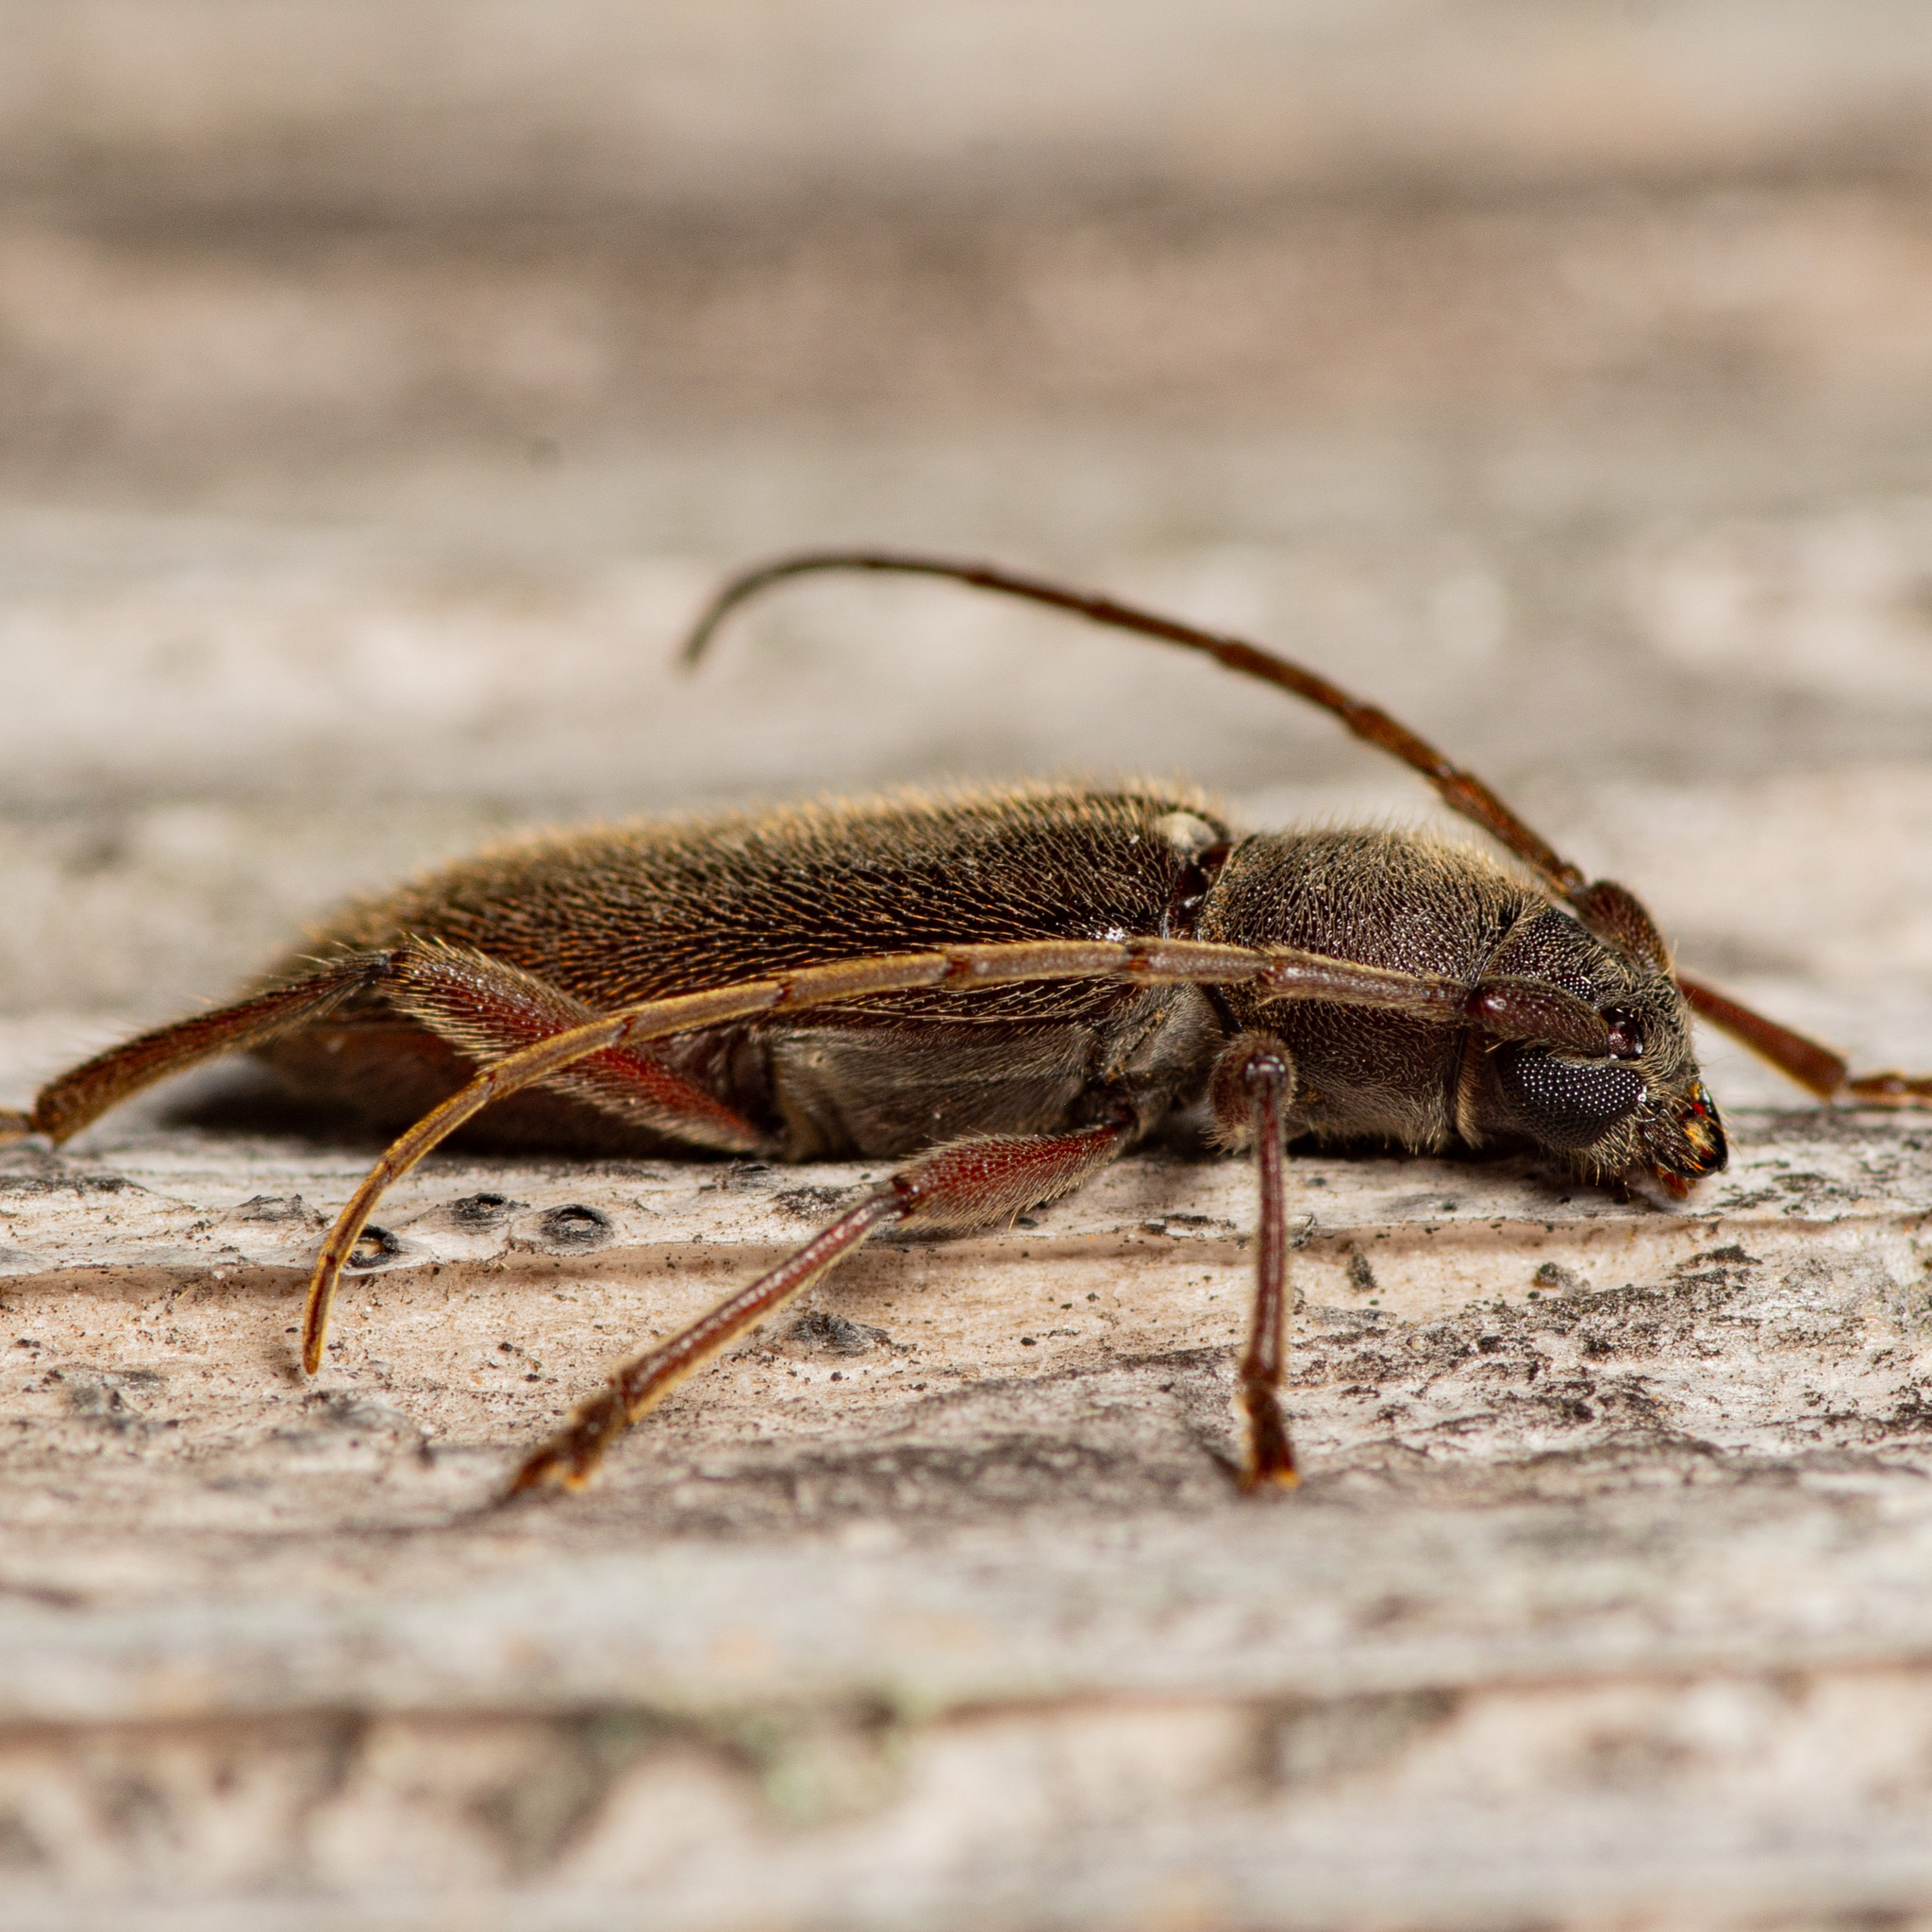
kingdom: Animalia
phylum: Arthropoda
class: Insecta
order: Coleoptera
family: Cerambycidae
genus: Anelaphus
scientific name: Anelaphus moestus
